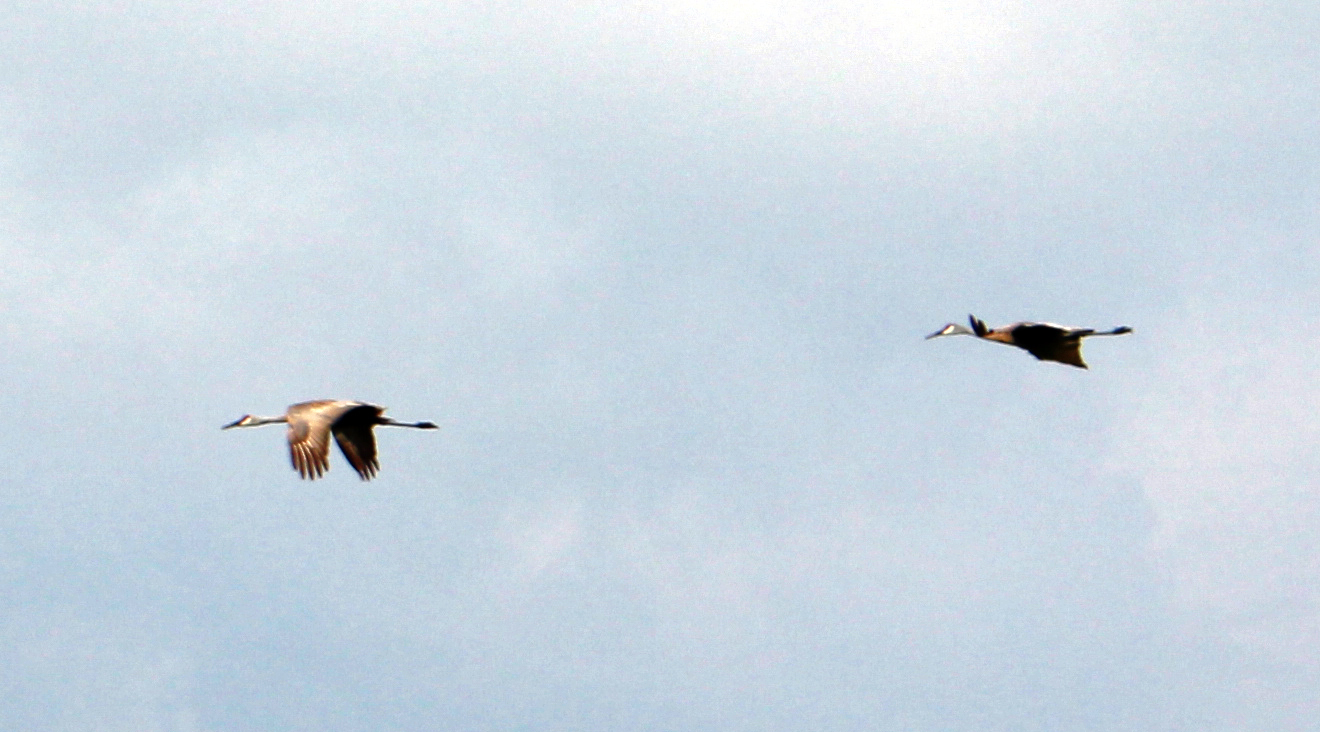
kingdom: Animalia
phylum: Chordata
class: Aves
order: Gruiformes
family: Gruidae
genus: Grus
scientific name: Grus canadensis
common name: Sandhill crane
